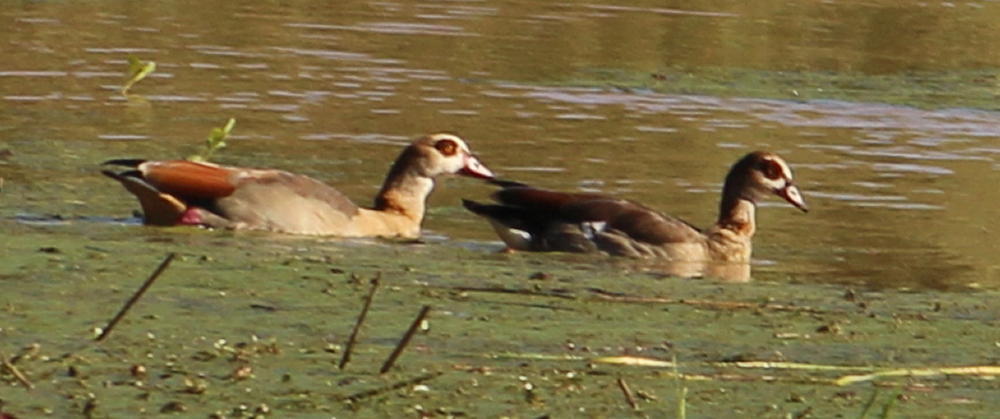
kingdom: Animalia
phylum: Chordata
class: Aves
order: Anseriformes
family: Anatidae
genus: Alopochen
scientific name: Alopochen aegyptiaca
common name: Egyptian goose
